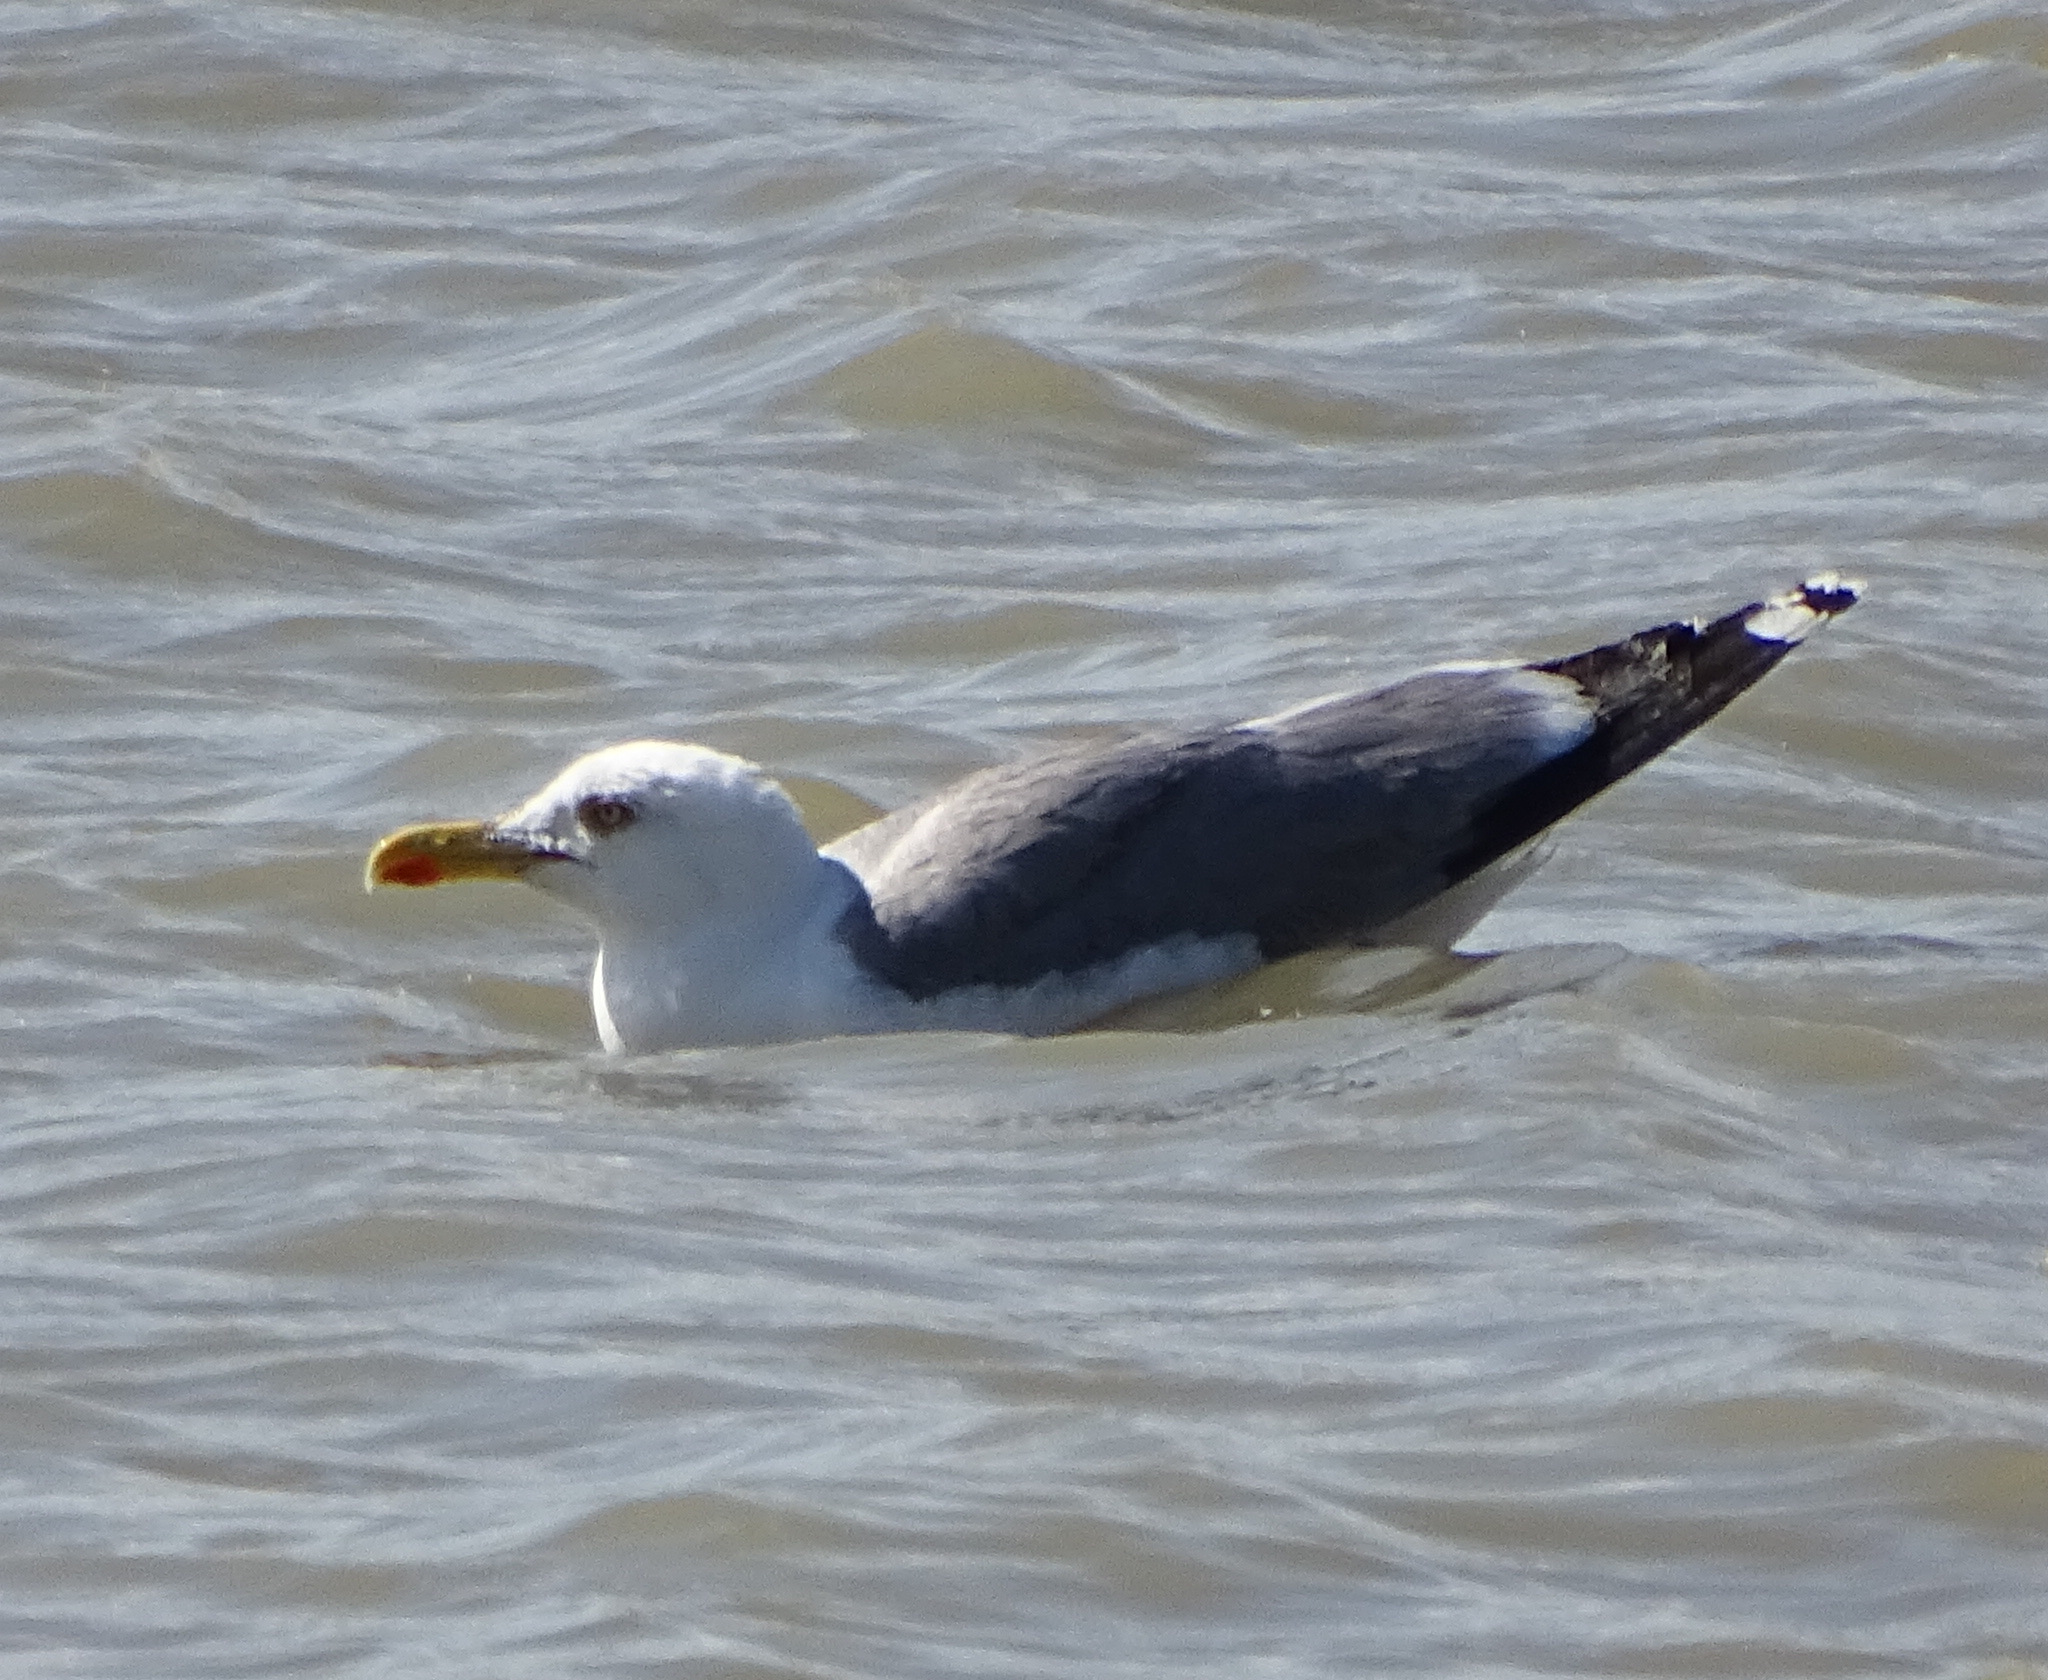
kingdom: Animalia
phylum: Chordata
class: Aves
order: Charadriiformes
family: Laridae
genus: Larus
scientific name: Larus michahellis
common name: Yellow-legged gull
